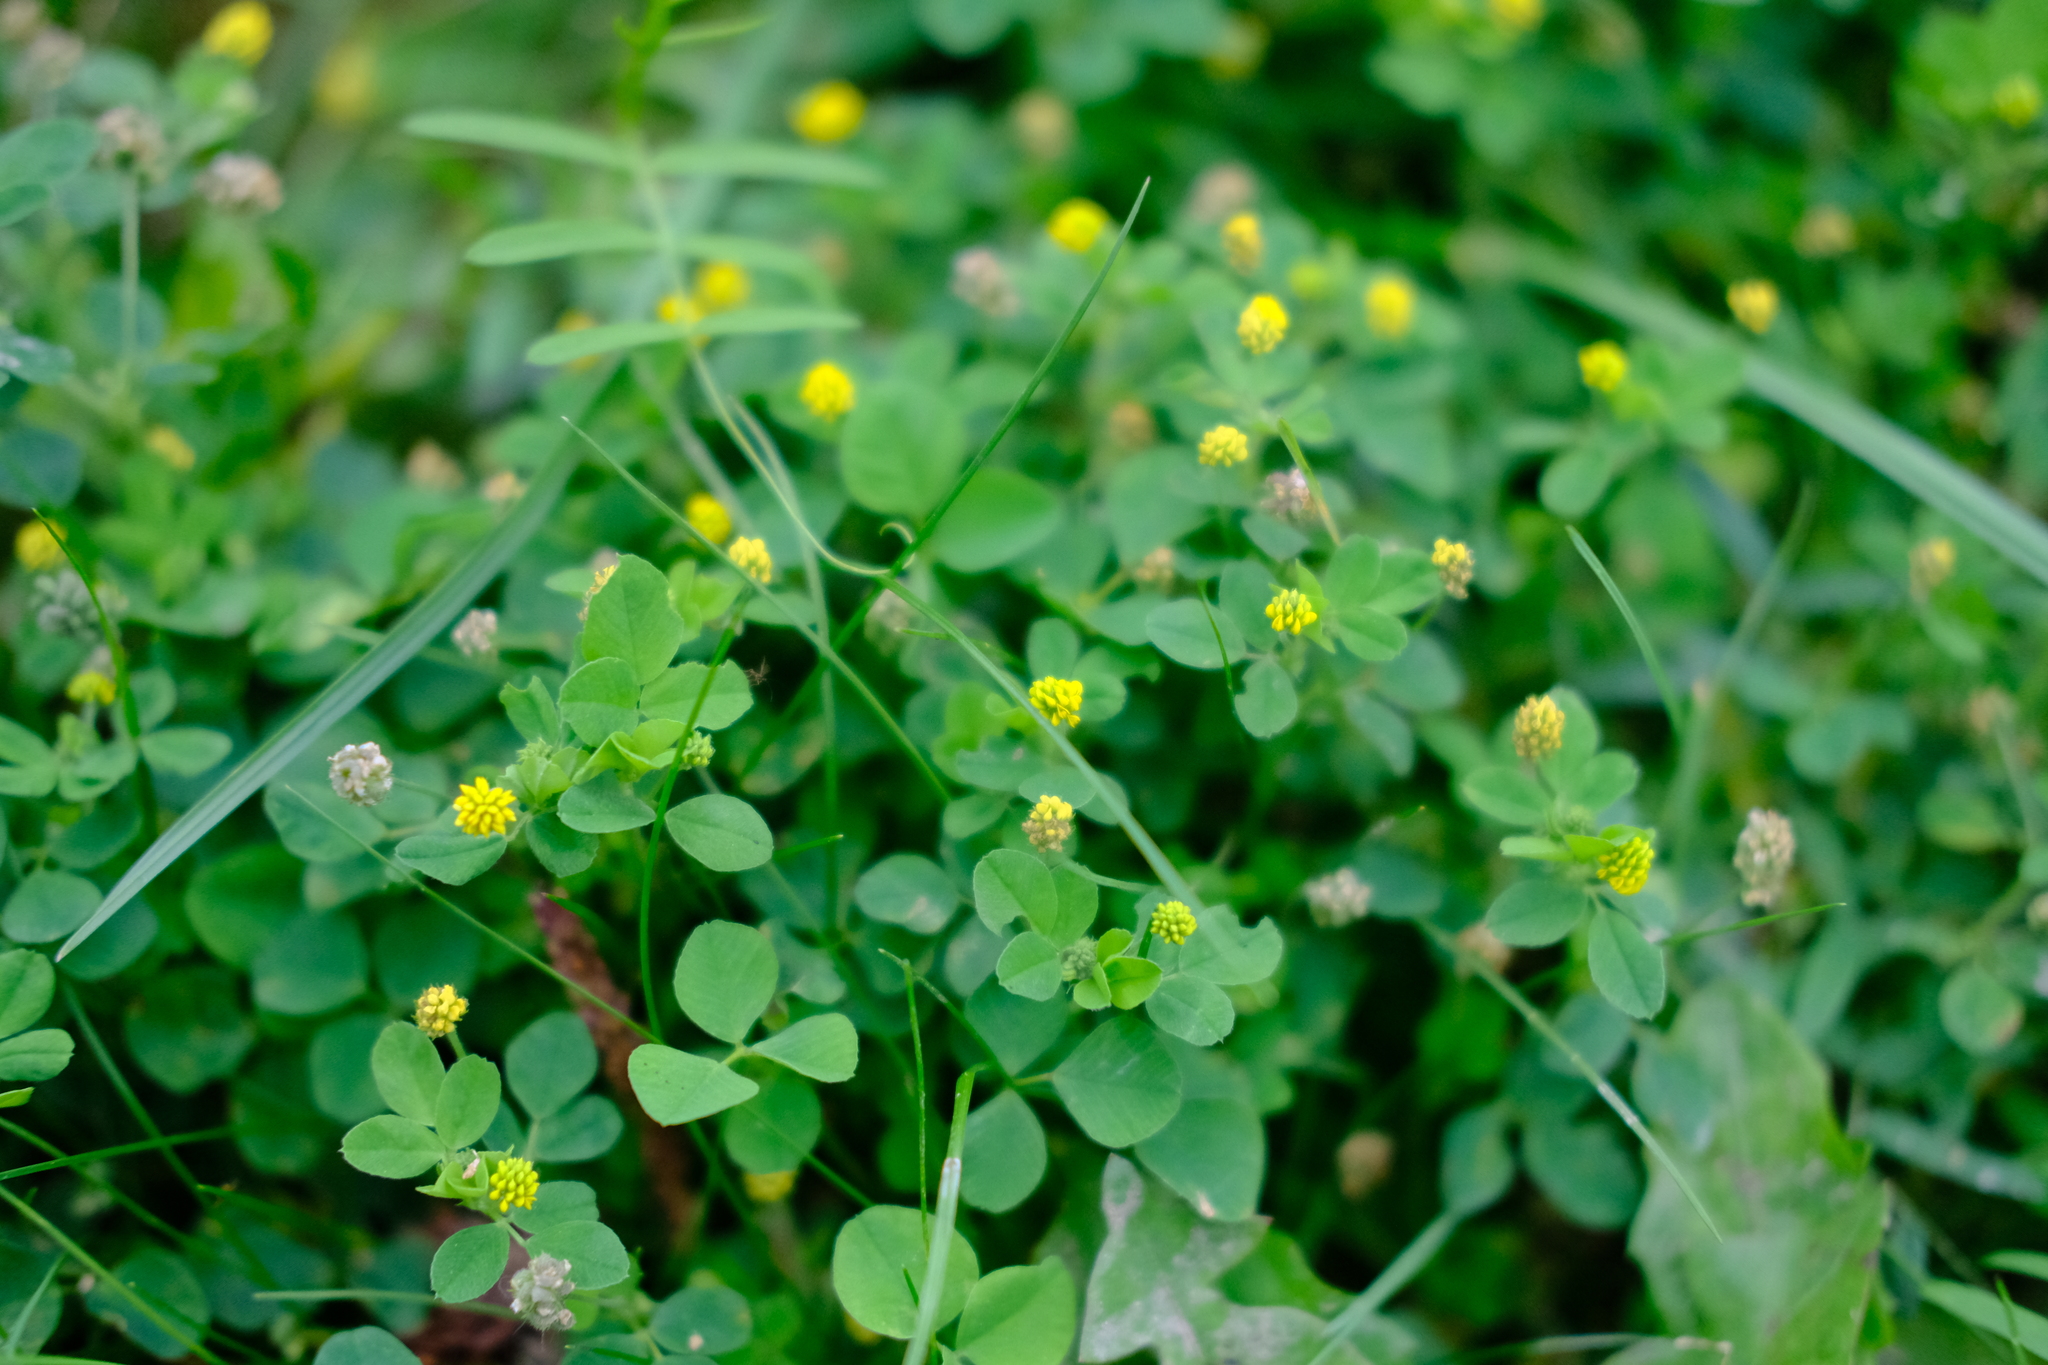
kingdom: Plantae
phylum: Tracheophyta
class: Magnoliopsida
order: Fabales
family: Fabaceae
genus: Medicago
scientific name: Medicago lupulina
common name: Black medick
